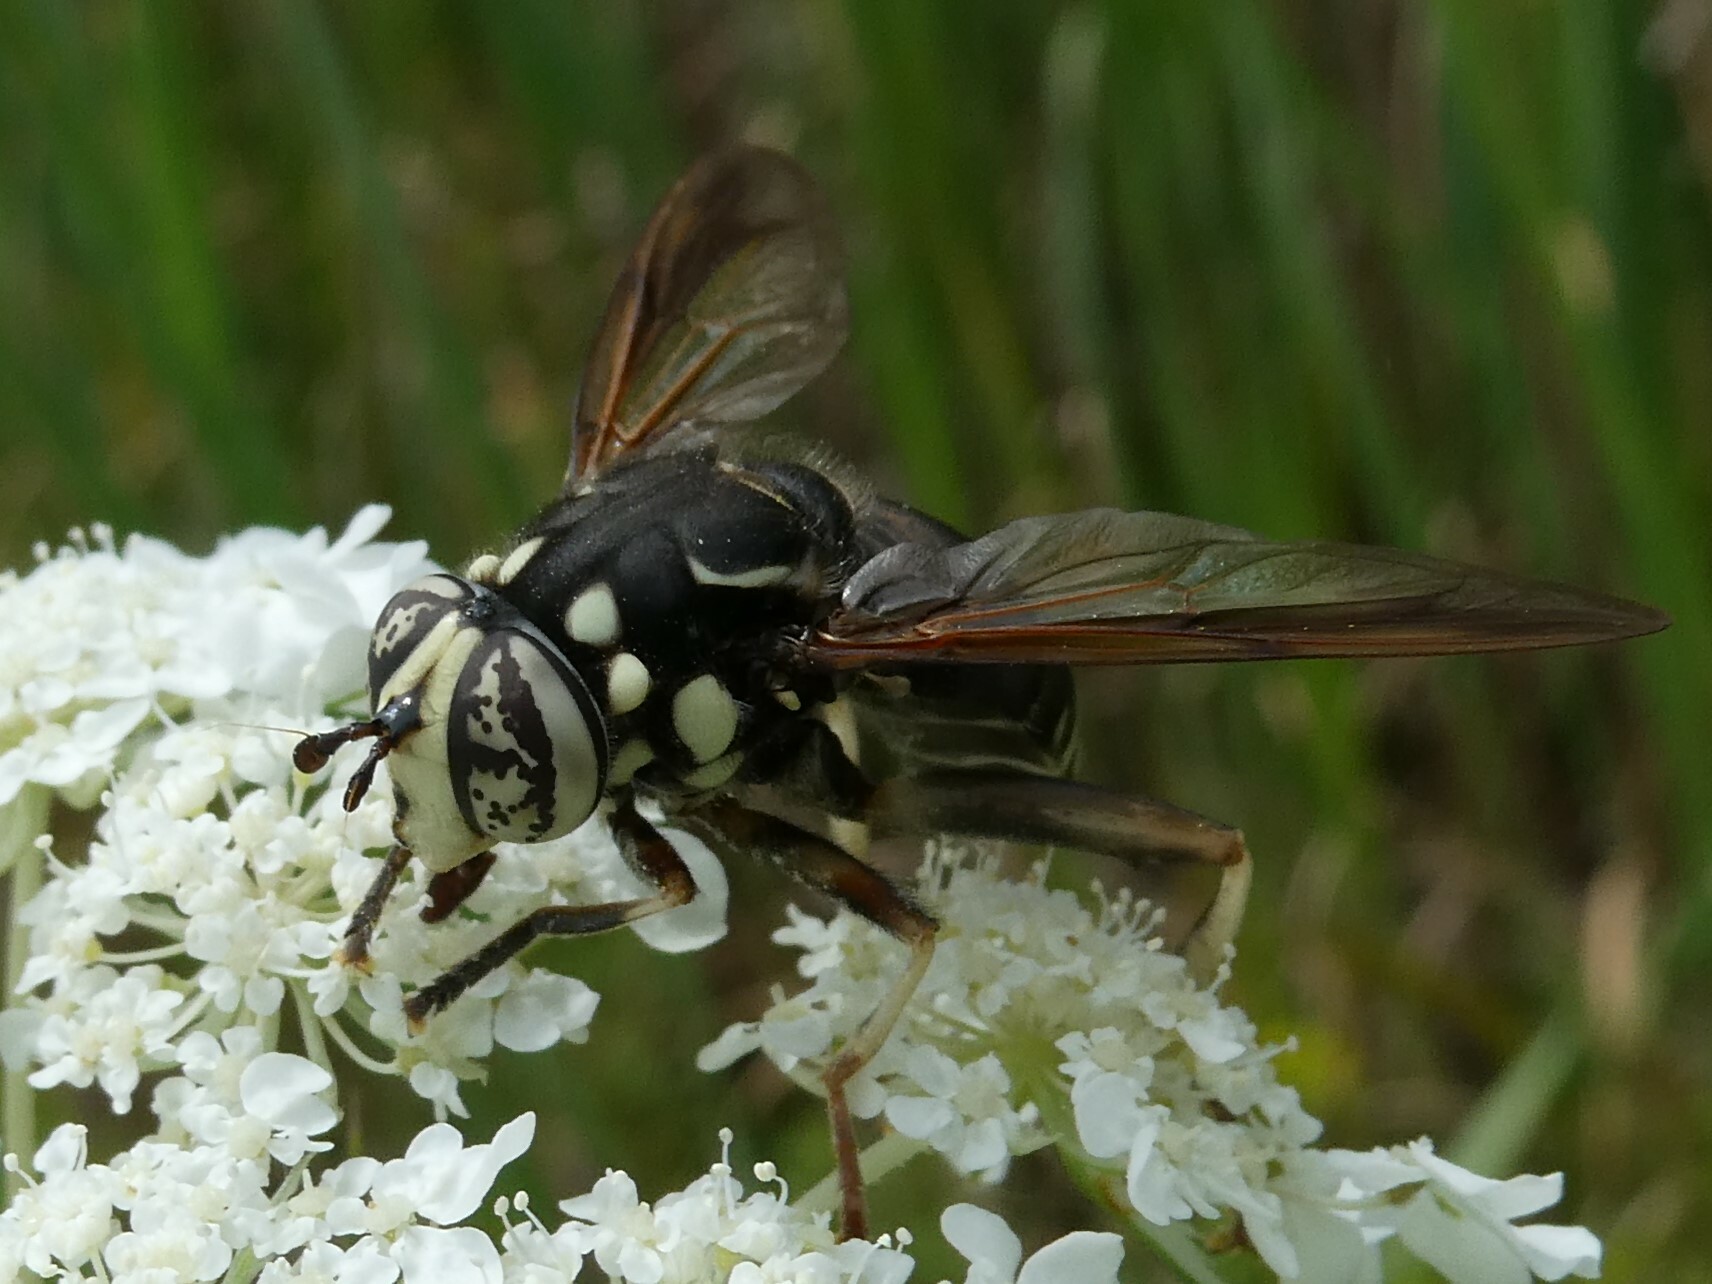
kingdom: Animalia
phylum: Arthropoda
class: Insecta
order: Diptera
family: Syrphidae
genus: Spilomyia
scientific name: Spilomyia fusca
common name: Bald-faced hornet fly
